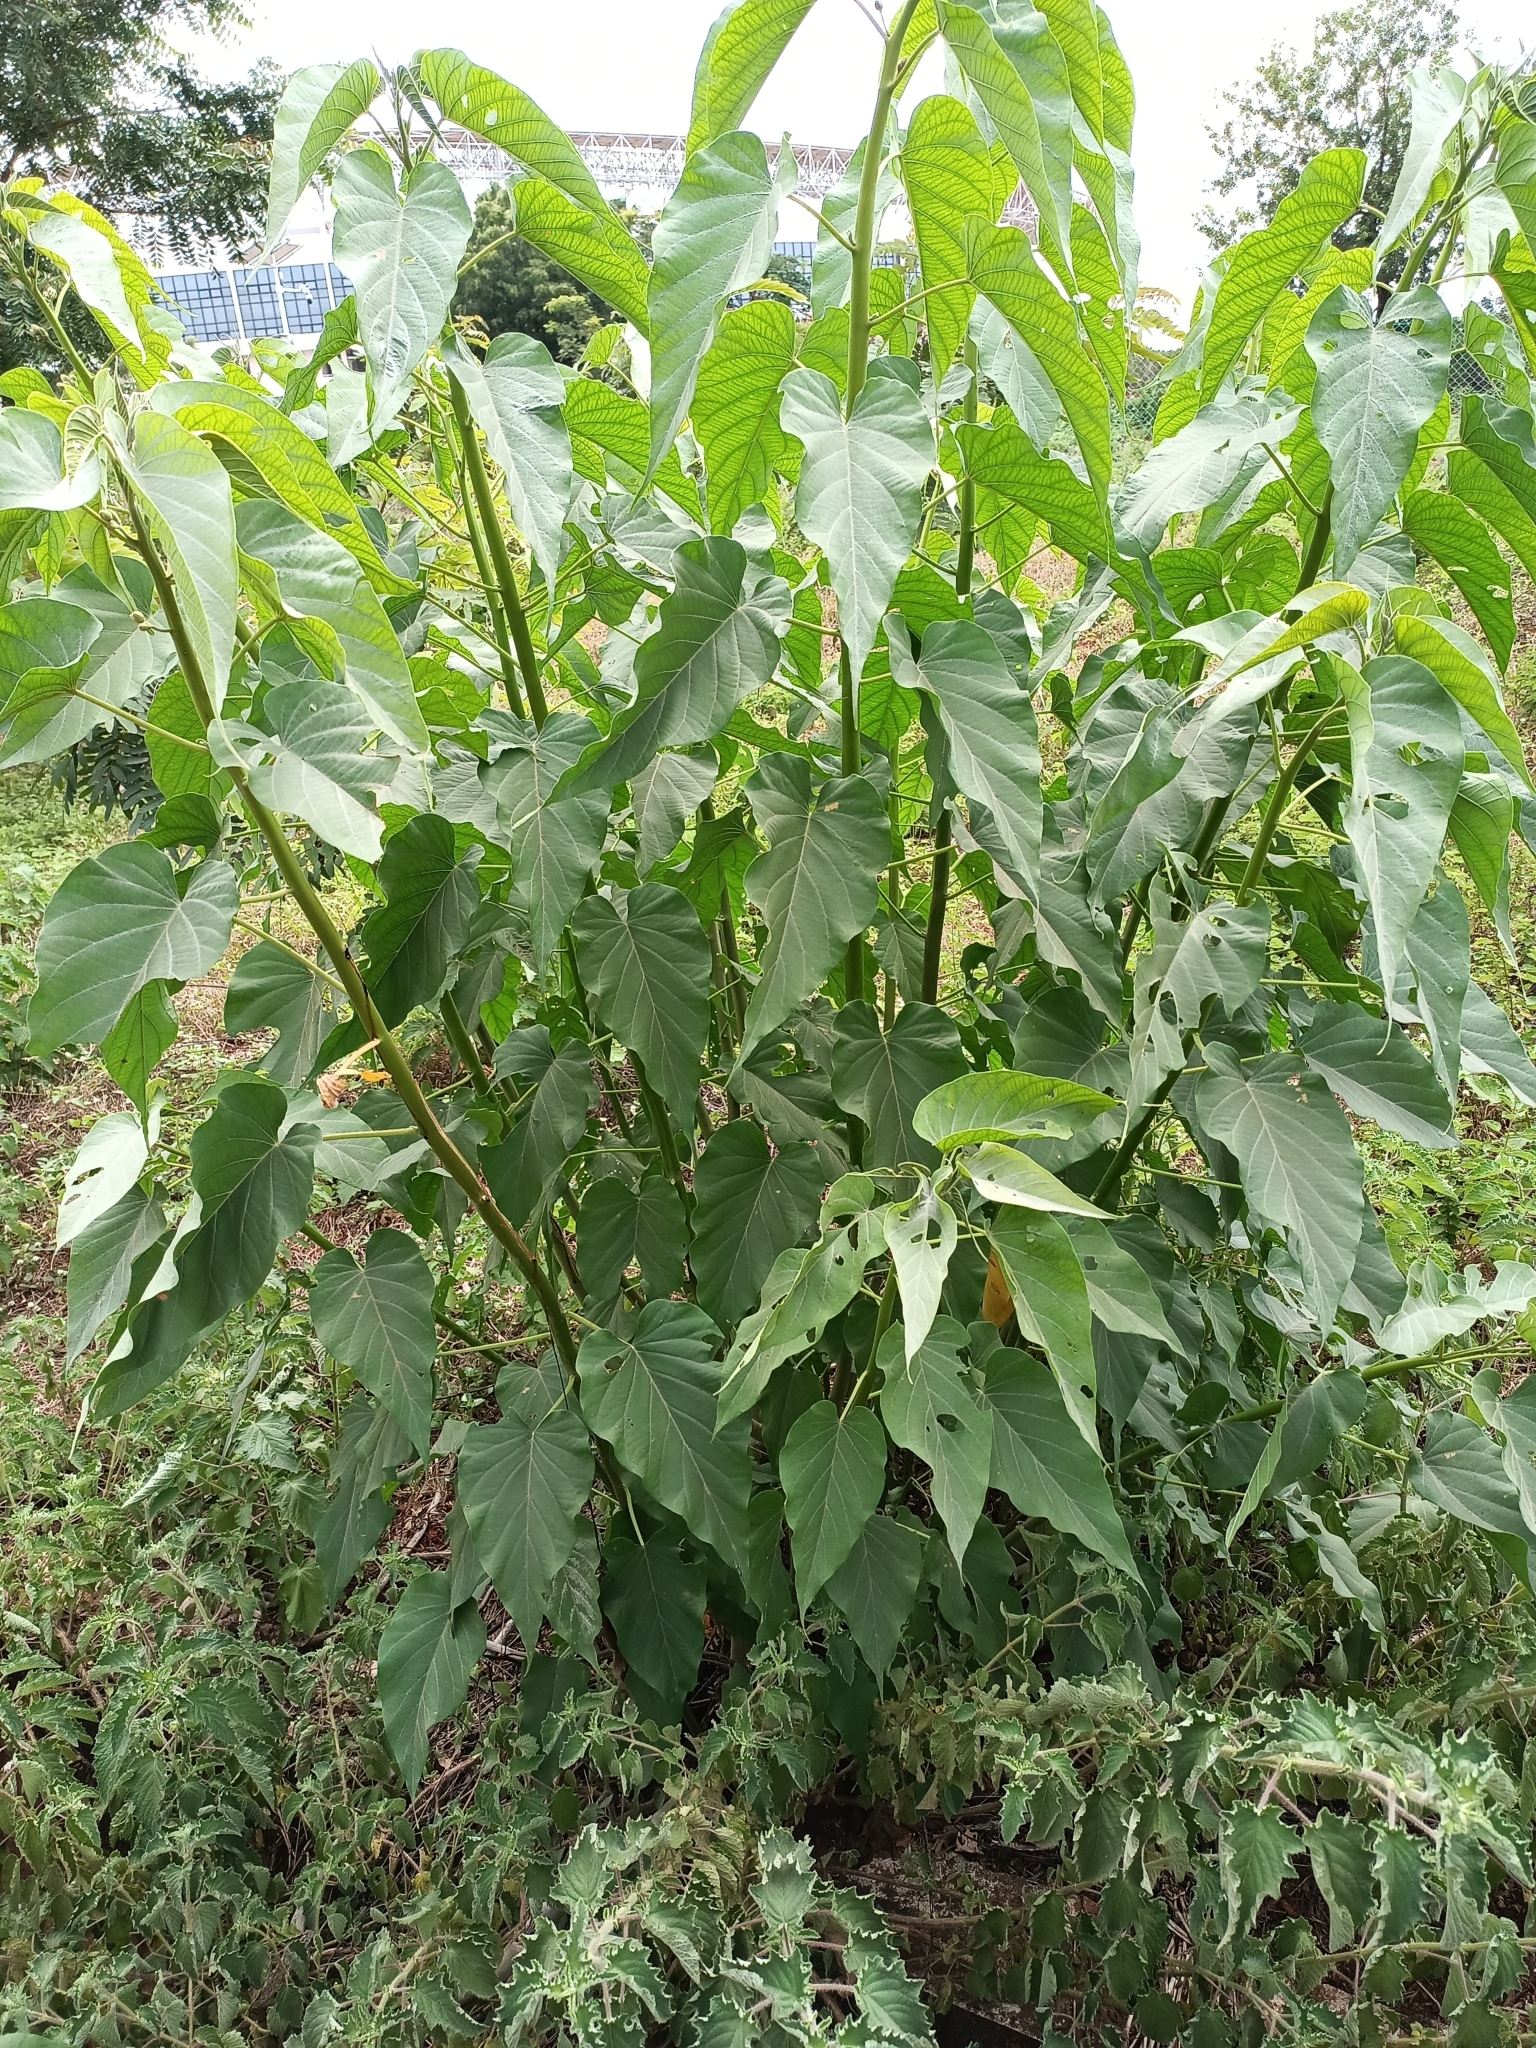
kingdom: Plantae
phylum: Tracheophyta
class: Magnoliopsida
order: Solanales
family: Convolvulaceae
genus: Ipomoea
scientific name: Ipomoea carnea
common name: Morning-glory
